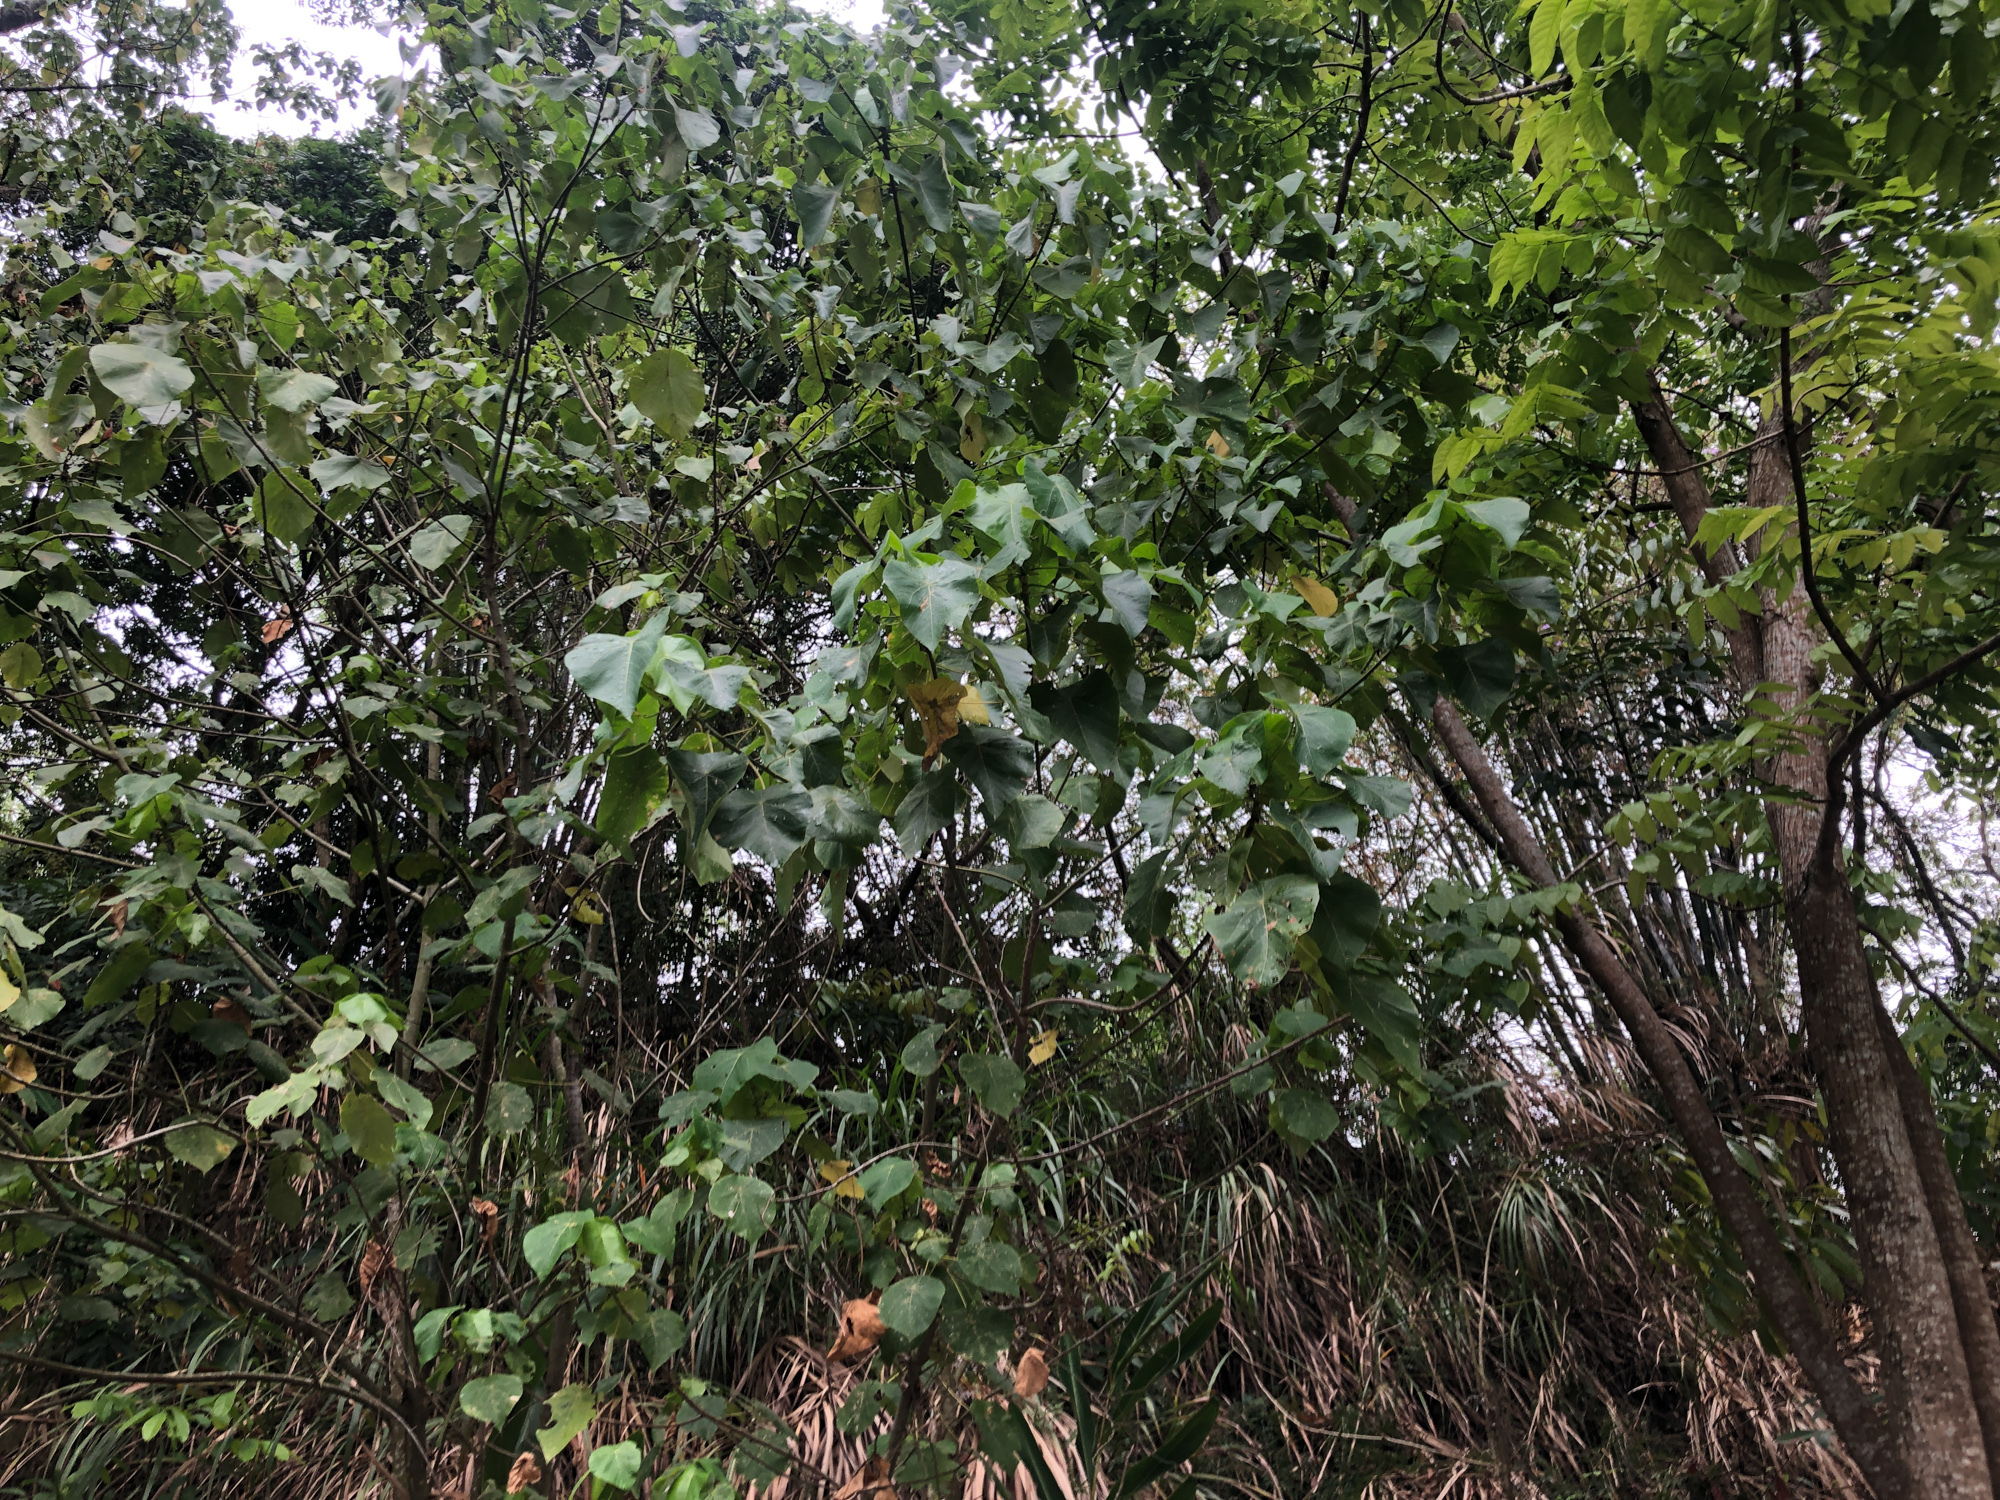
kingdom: Plantae
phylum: Tracheophyta
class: Magnoliopsida
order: Malpighiales
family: Euphorbiaceae
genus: Macaranga
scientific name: Macaranga tanarius
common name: Parasol leaf tree
